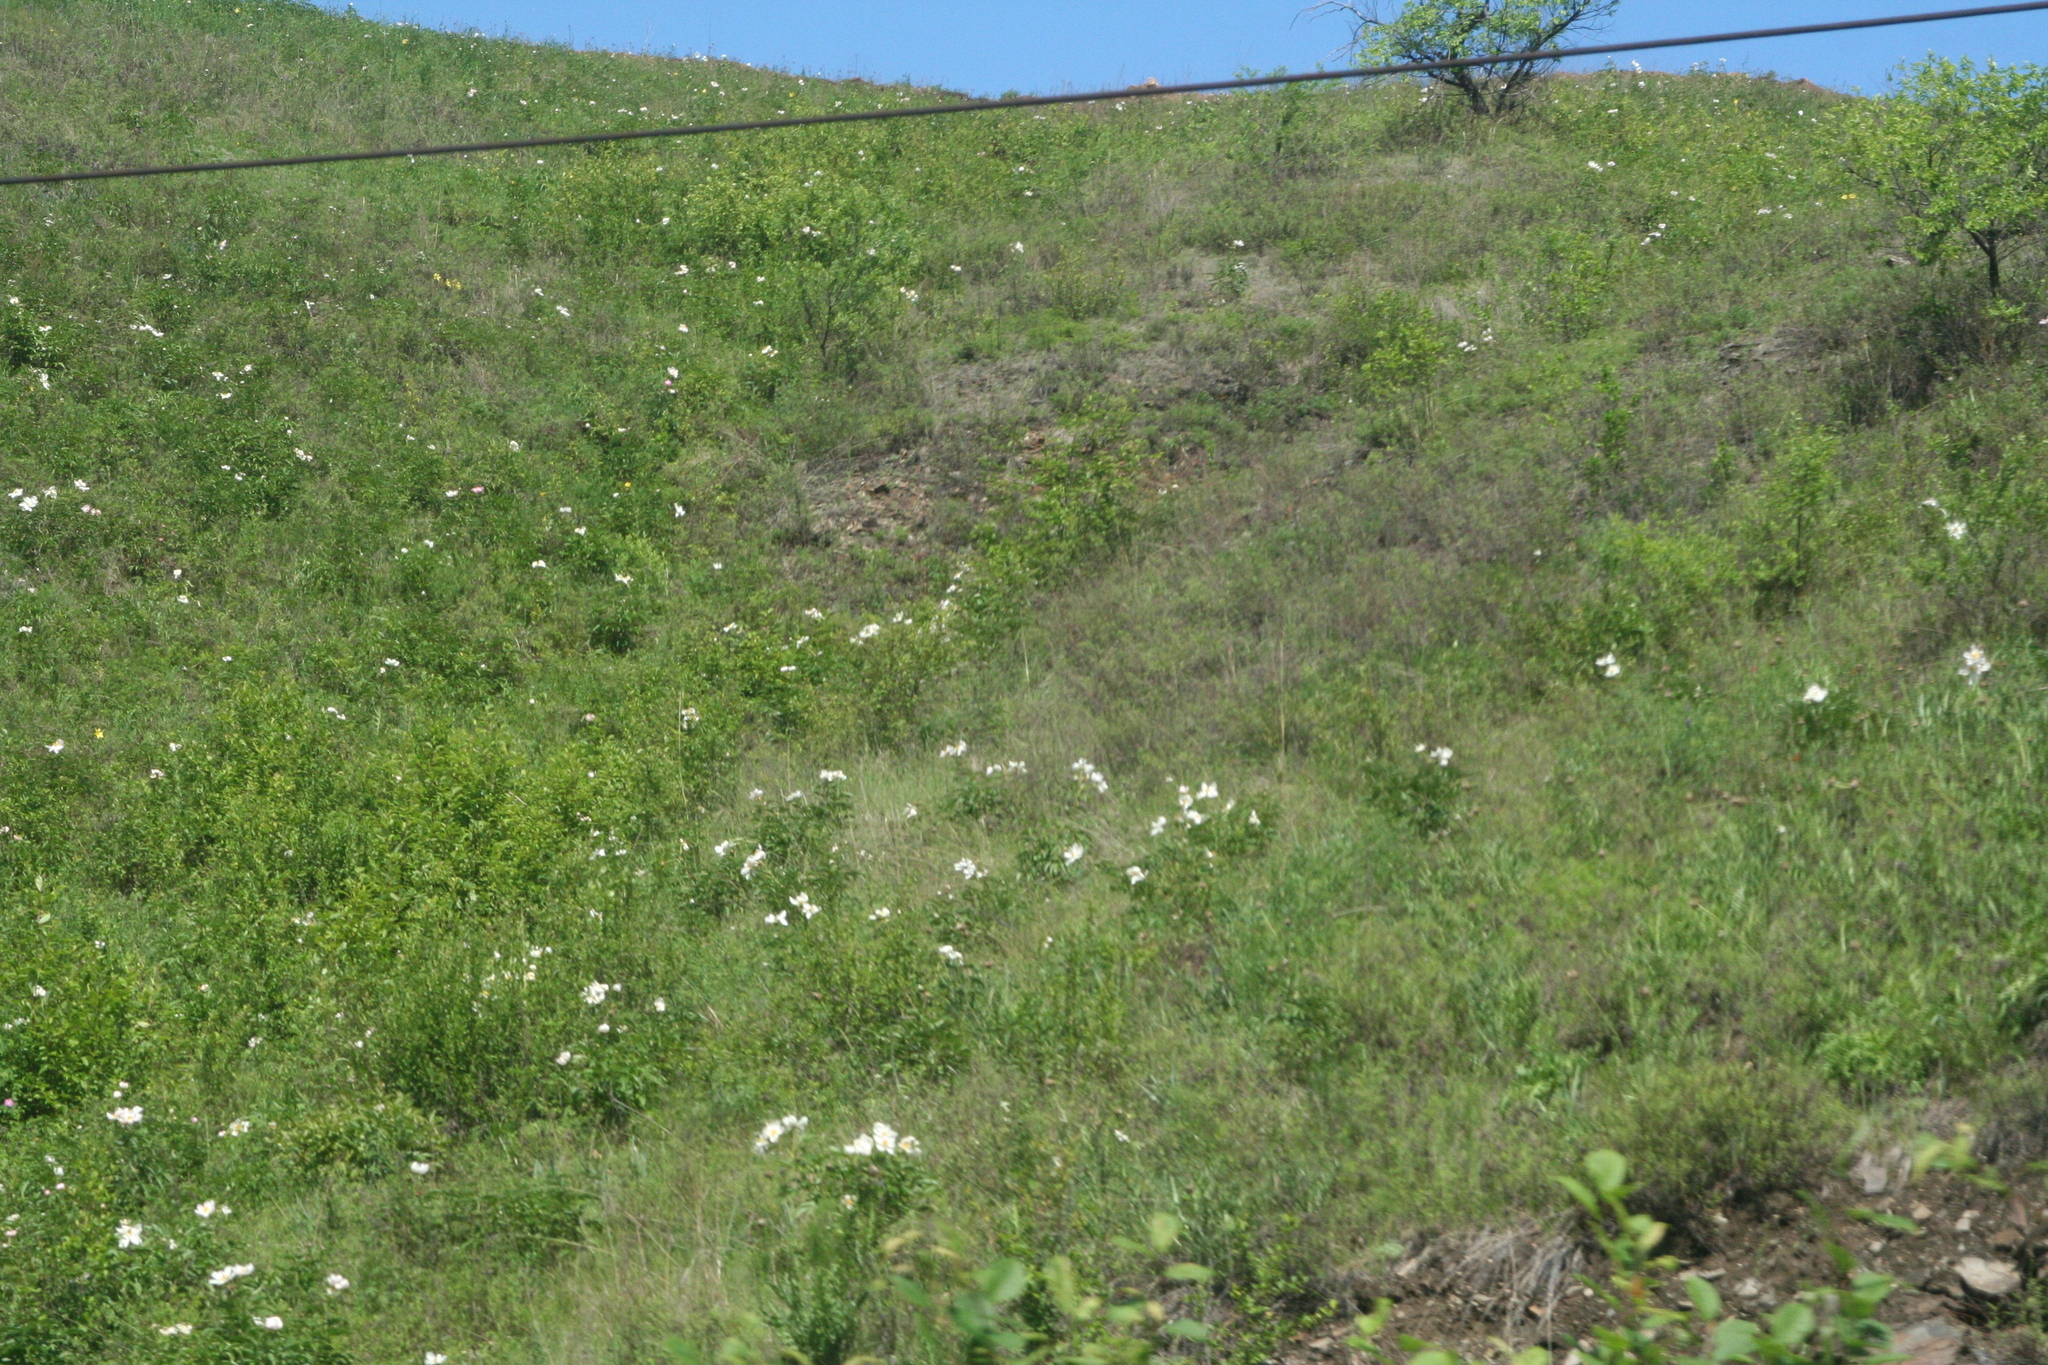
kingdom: Plantae
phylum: Tracheophyta
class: Magnoliopsida
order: Saxifragales
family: Paeoniaceae
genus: Paeonia
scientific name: Paeonia lactiflora
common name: Chinese peony
